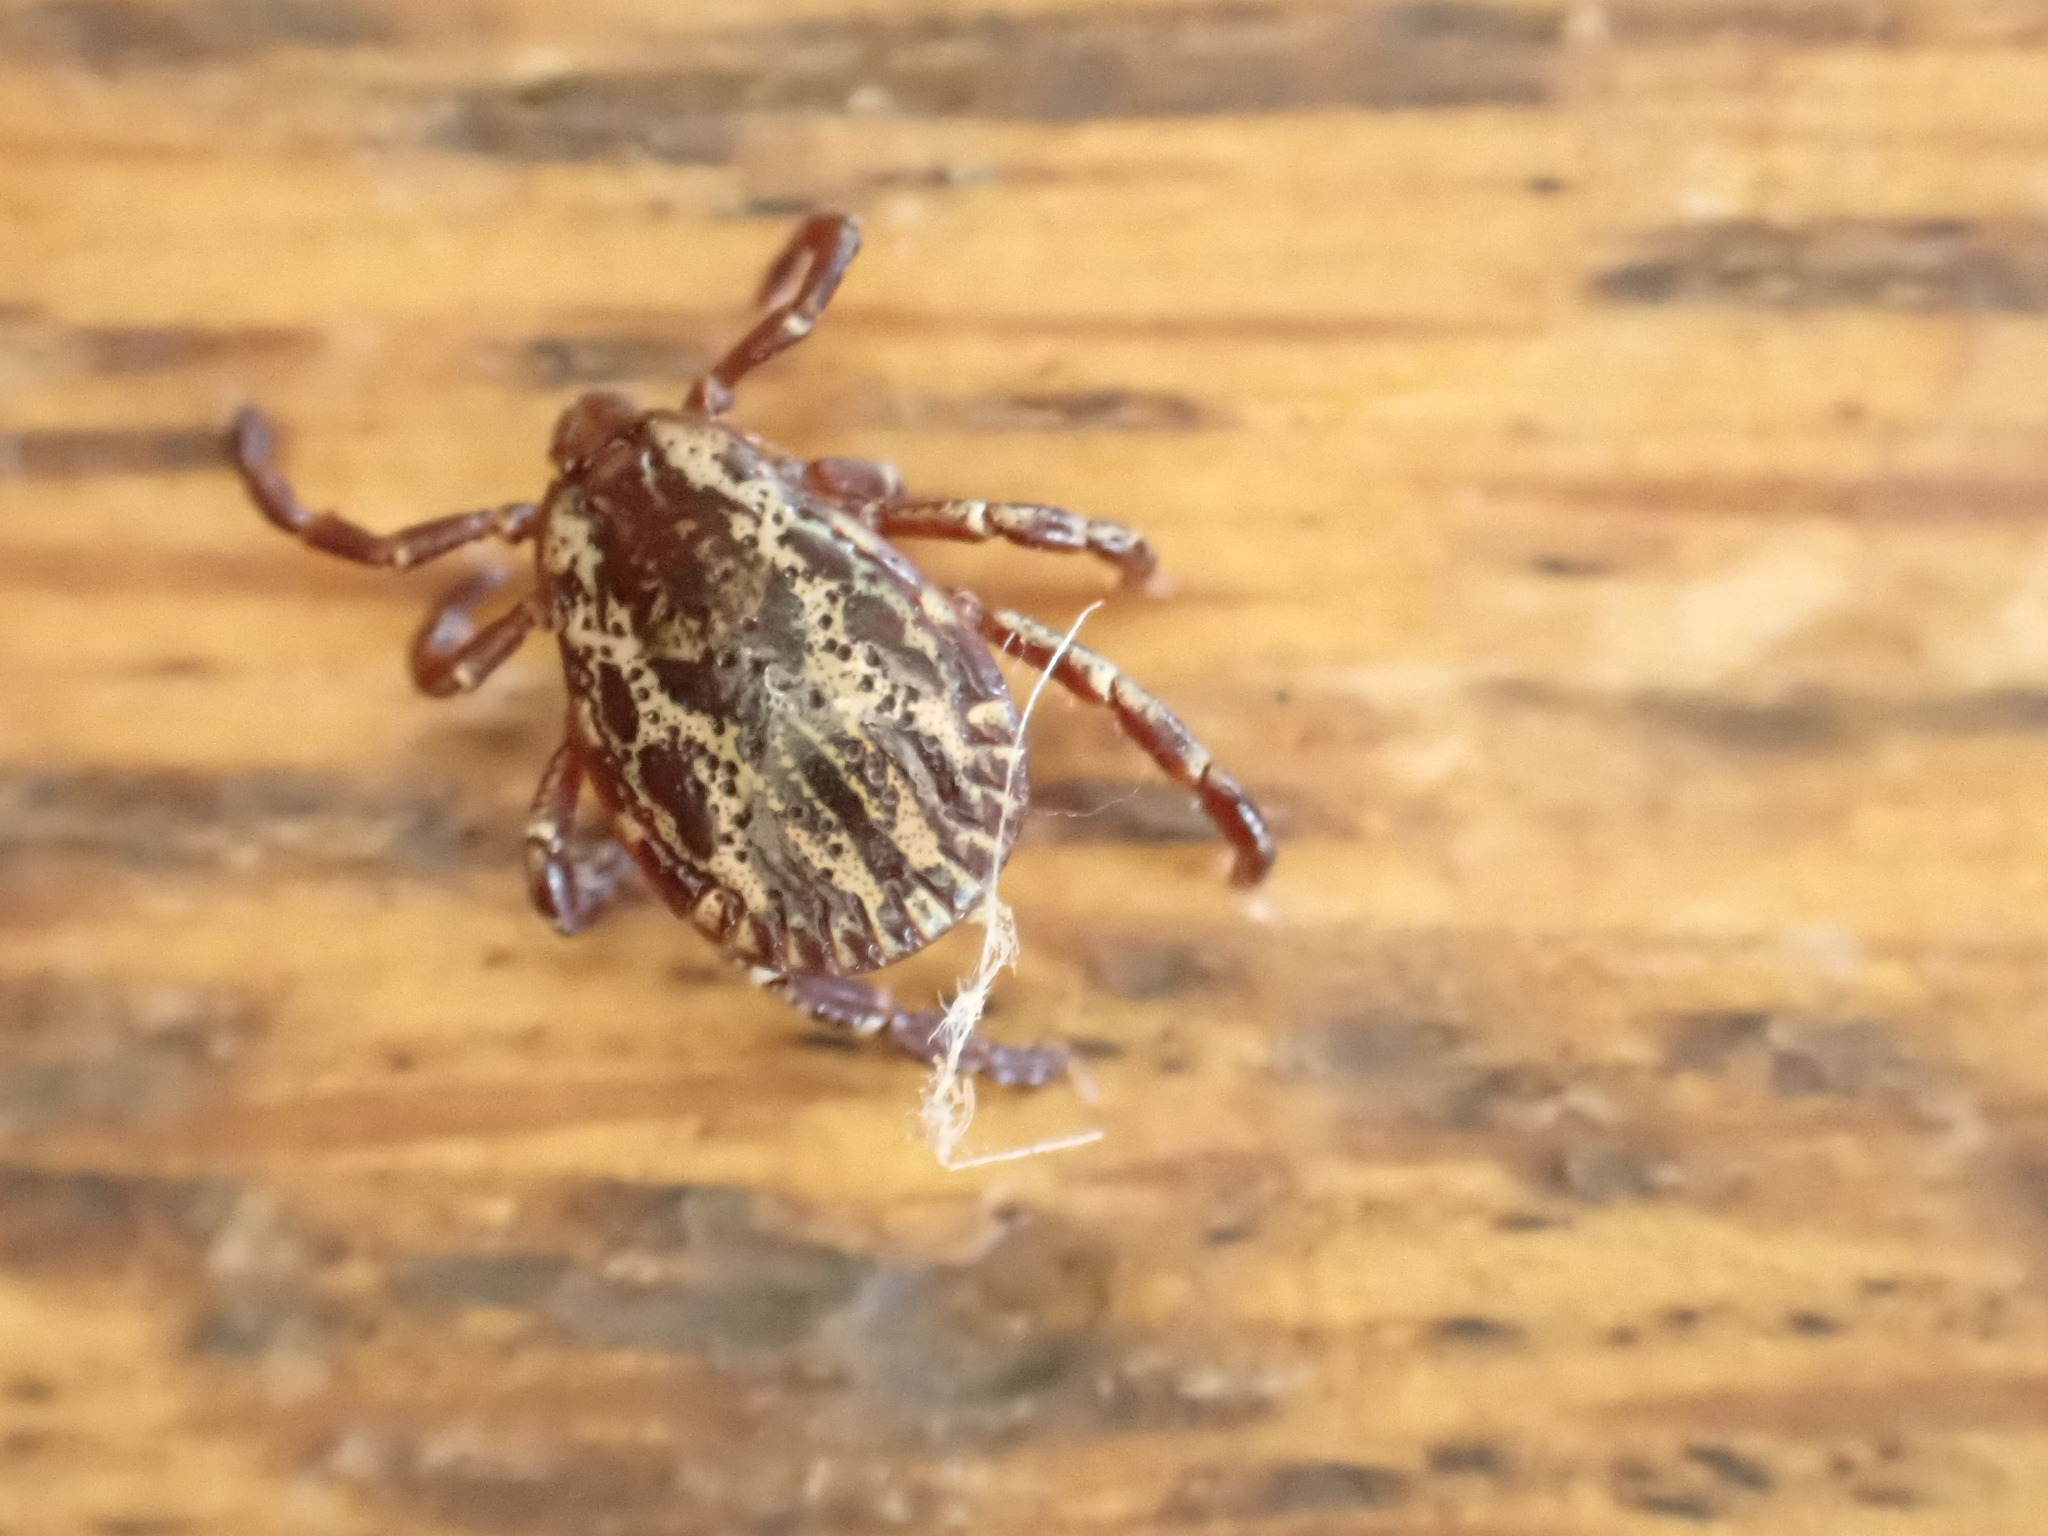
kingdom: Animalia
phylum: Arthropoda
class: Arachnida
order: Ixodida
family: Ixodidae
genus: Dermacentor
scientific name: Dermacentor variabilis
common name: American dog tick
